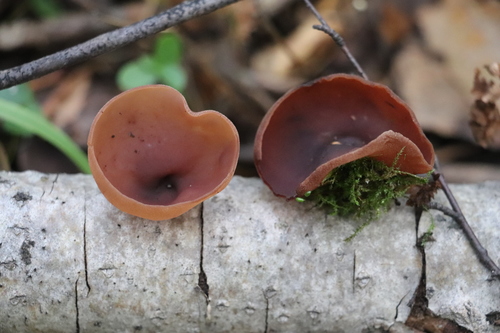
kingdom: Fungi
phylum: Ascomycota
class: Pezizomycetes
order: Pezizales
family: Pezizaceae
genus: Legaliana
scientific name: Legaliana
